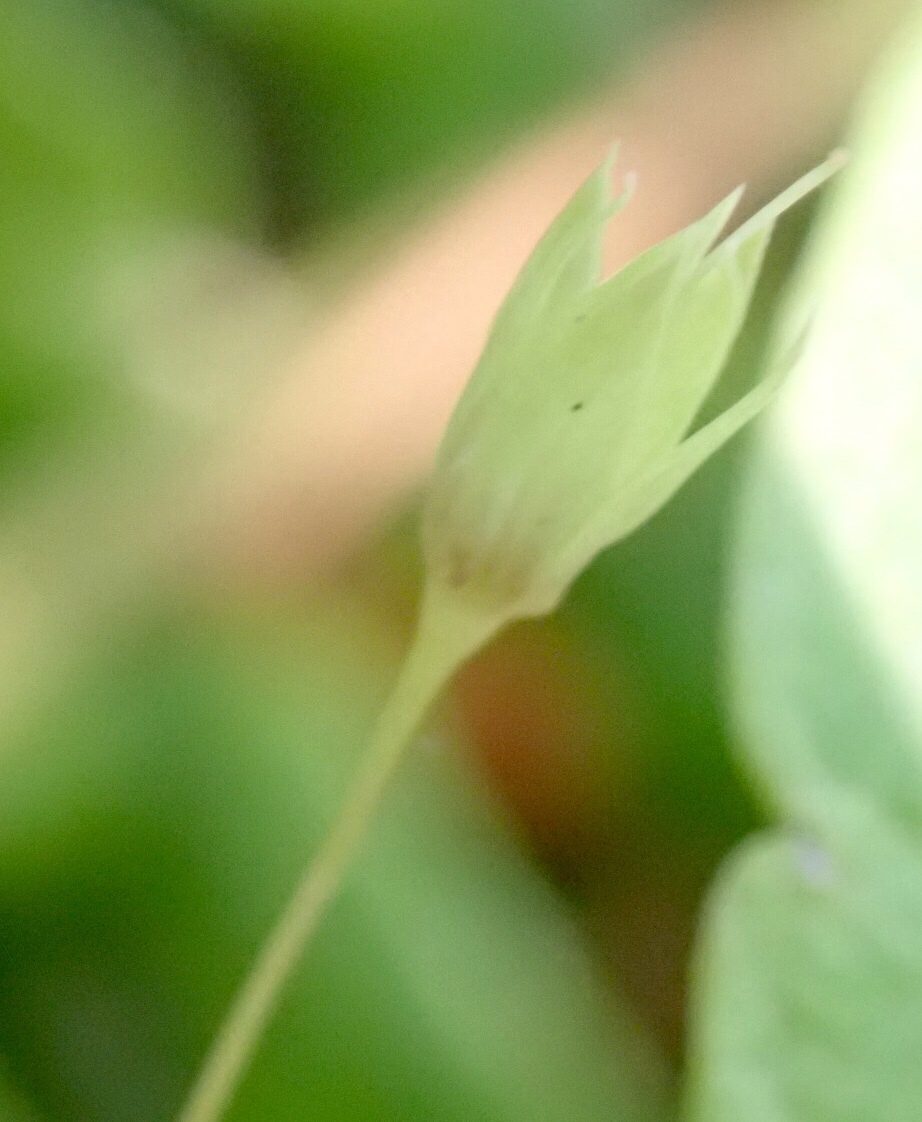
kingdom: Plantae
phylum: Tracheophyta
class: Magnoliopsida
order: Ericales
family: Primulaceae
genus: Lysimachia
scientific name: Lysimachia latifolia
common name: Pacific starflower
